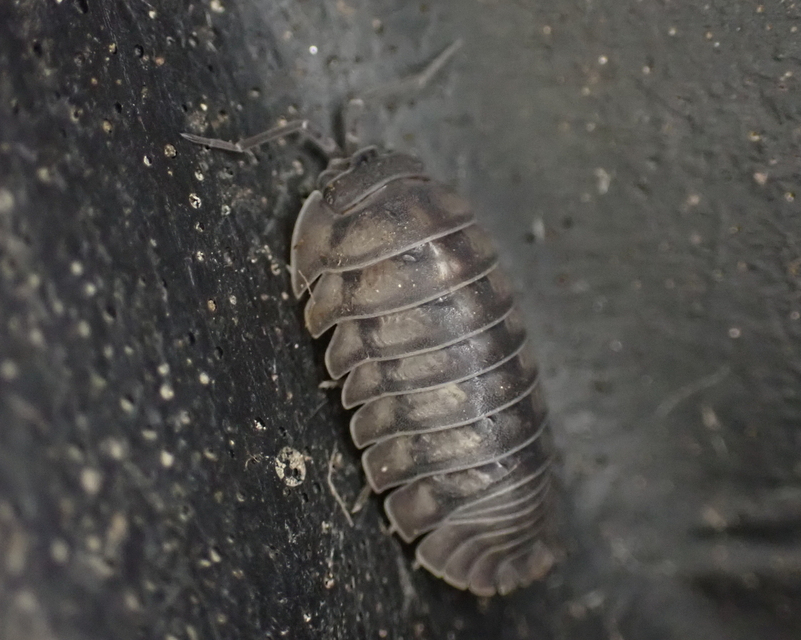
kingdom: Animalia
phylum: Arthropoda
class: Malacostraca
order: Isopoda
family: Armadillidiidae
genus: Armadillidium
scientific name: Armadillidium nasatum
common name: Isopod
